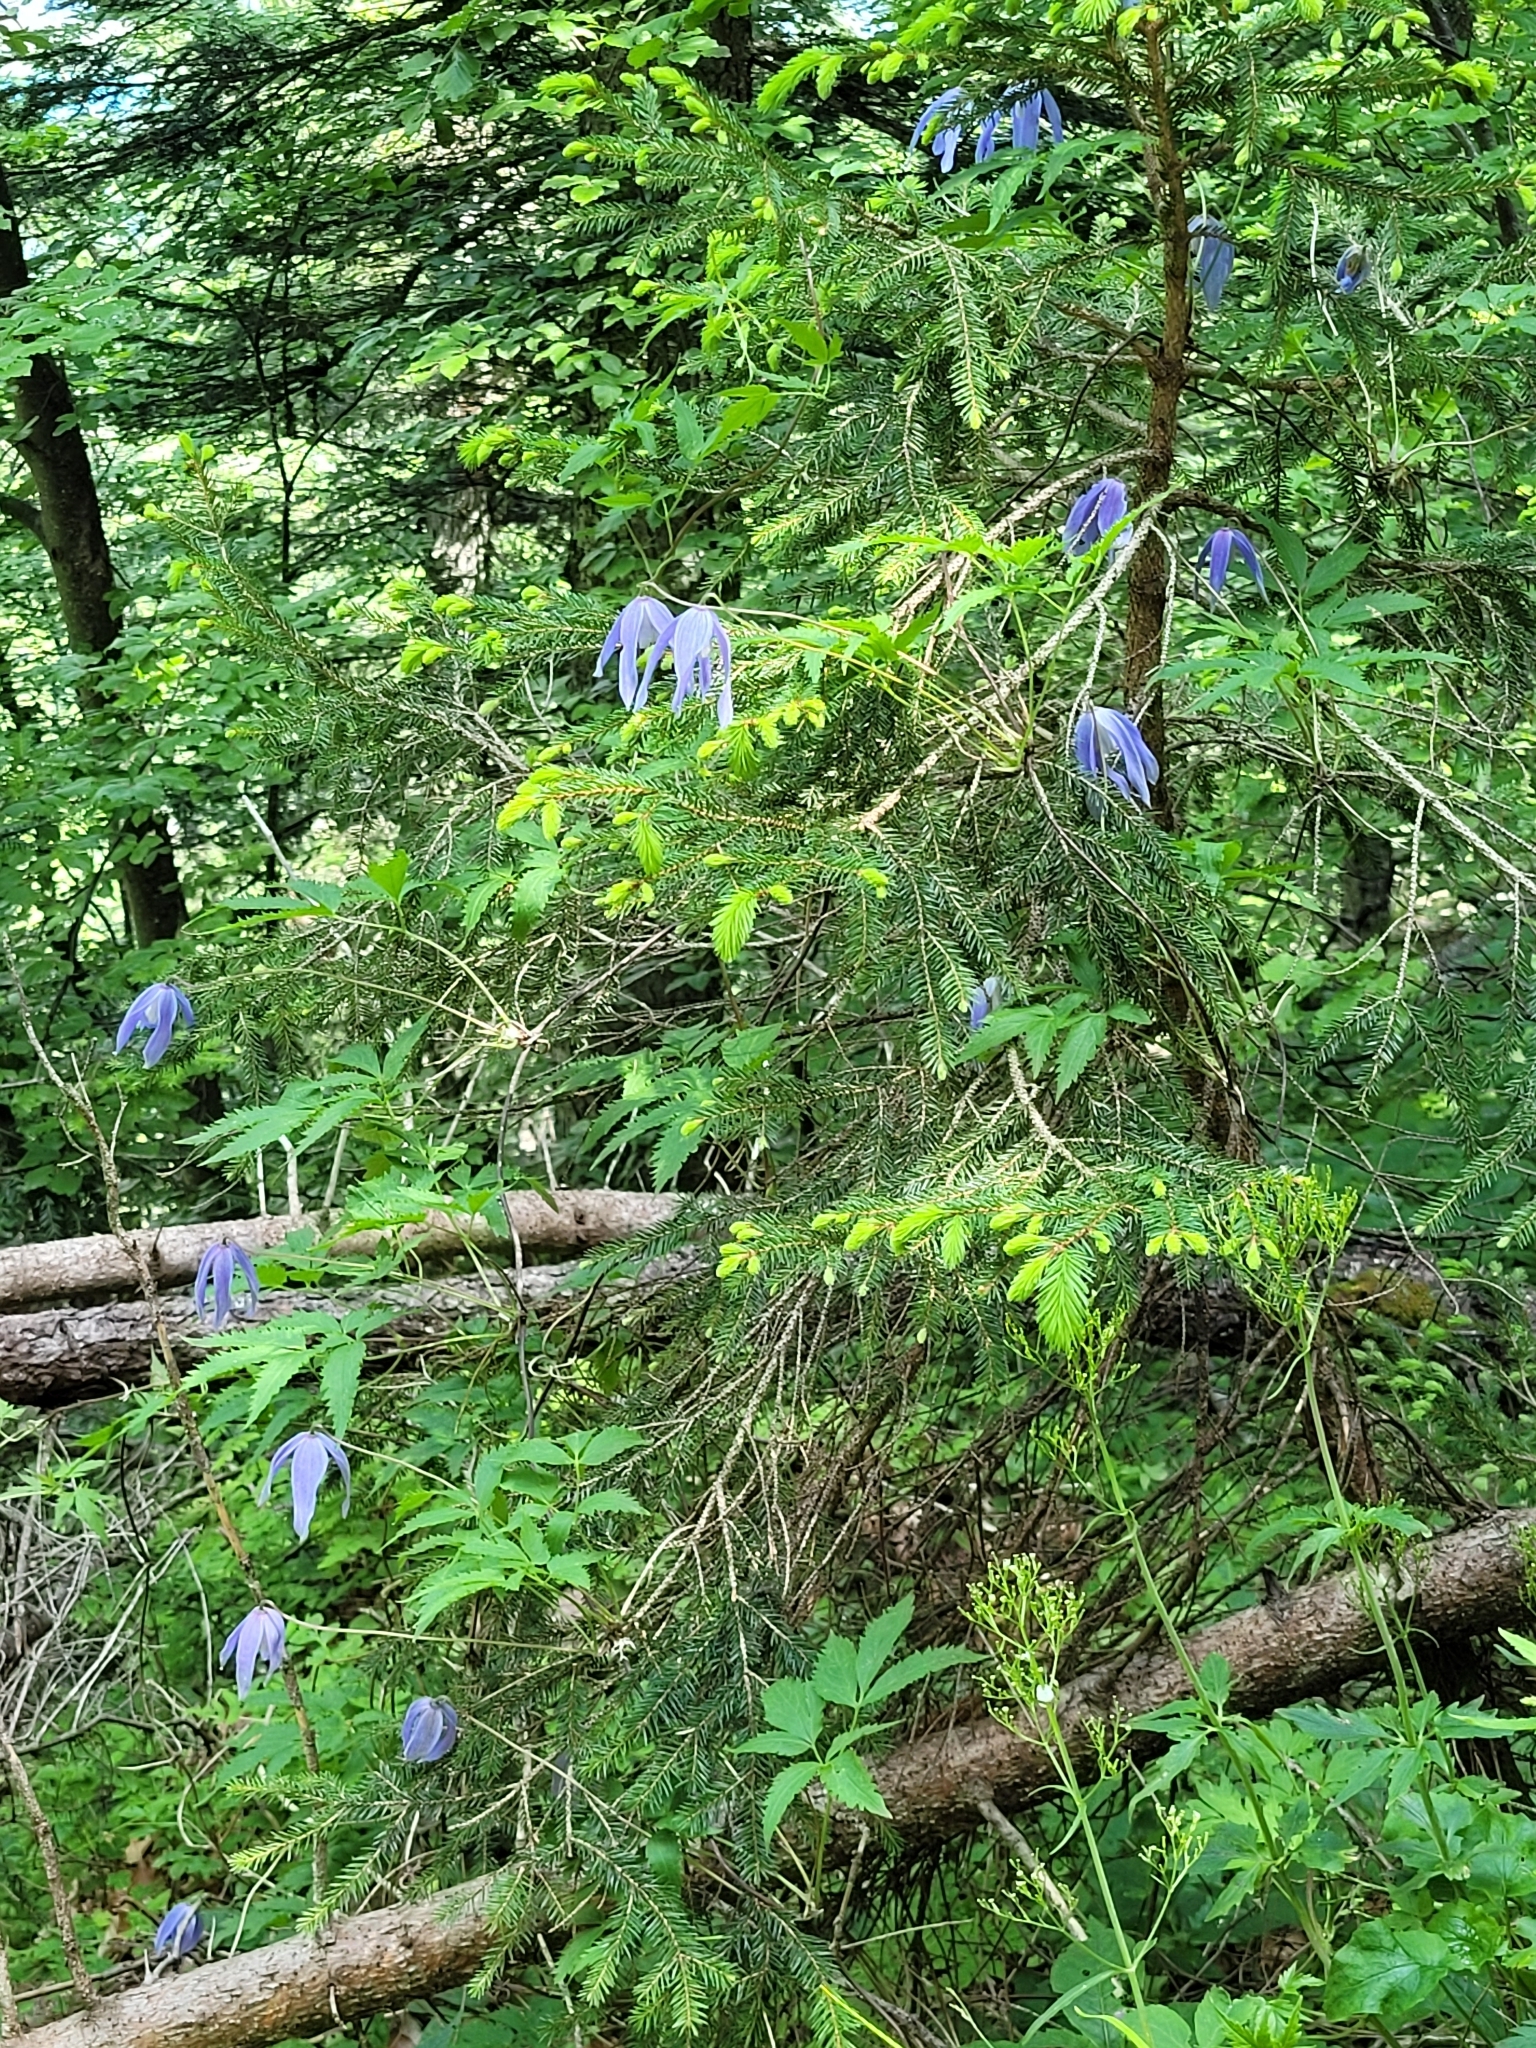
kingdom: Plantae
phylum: Tracheophyta
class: Magnoliopsida
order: Ranunculales
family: Ranunculaceae
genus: Clematis
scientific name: Clematis alpina
